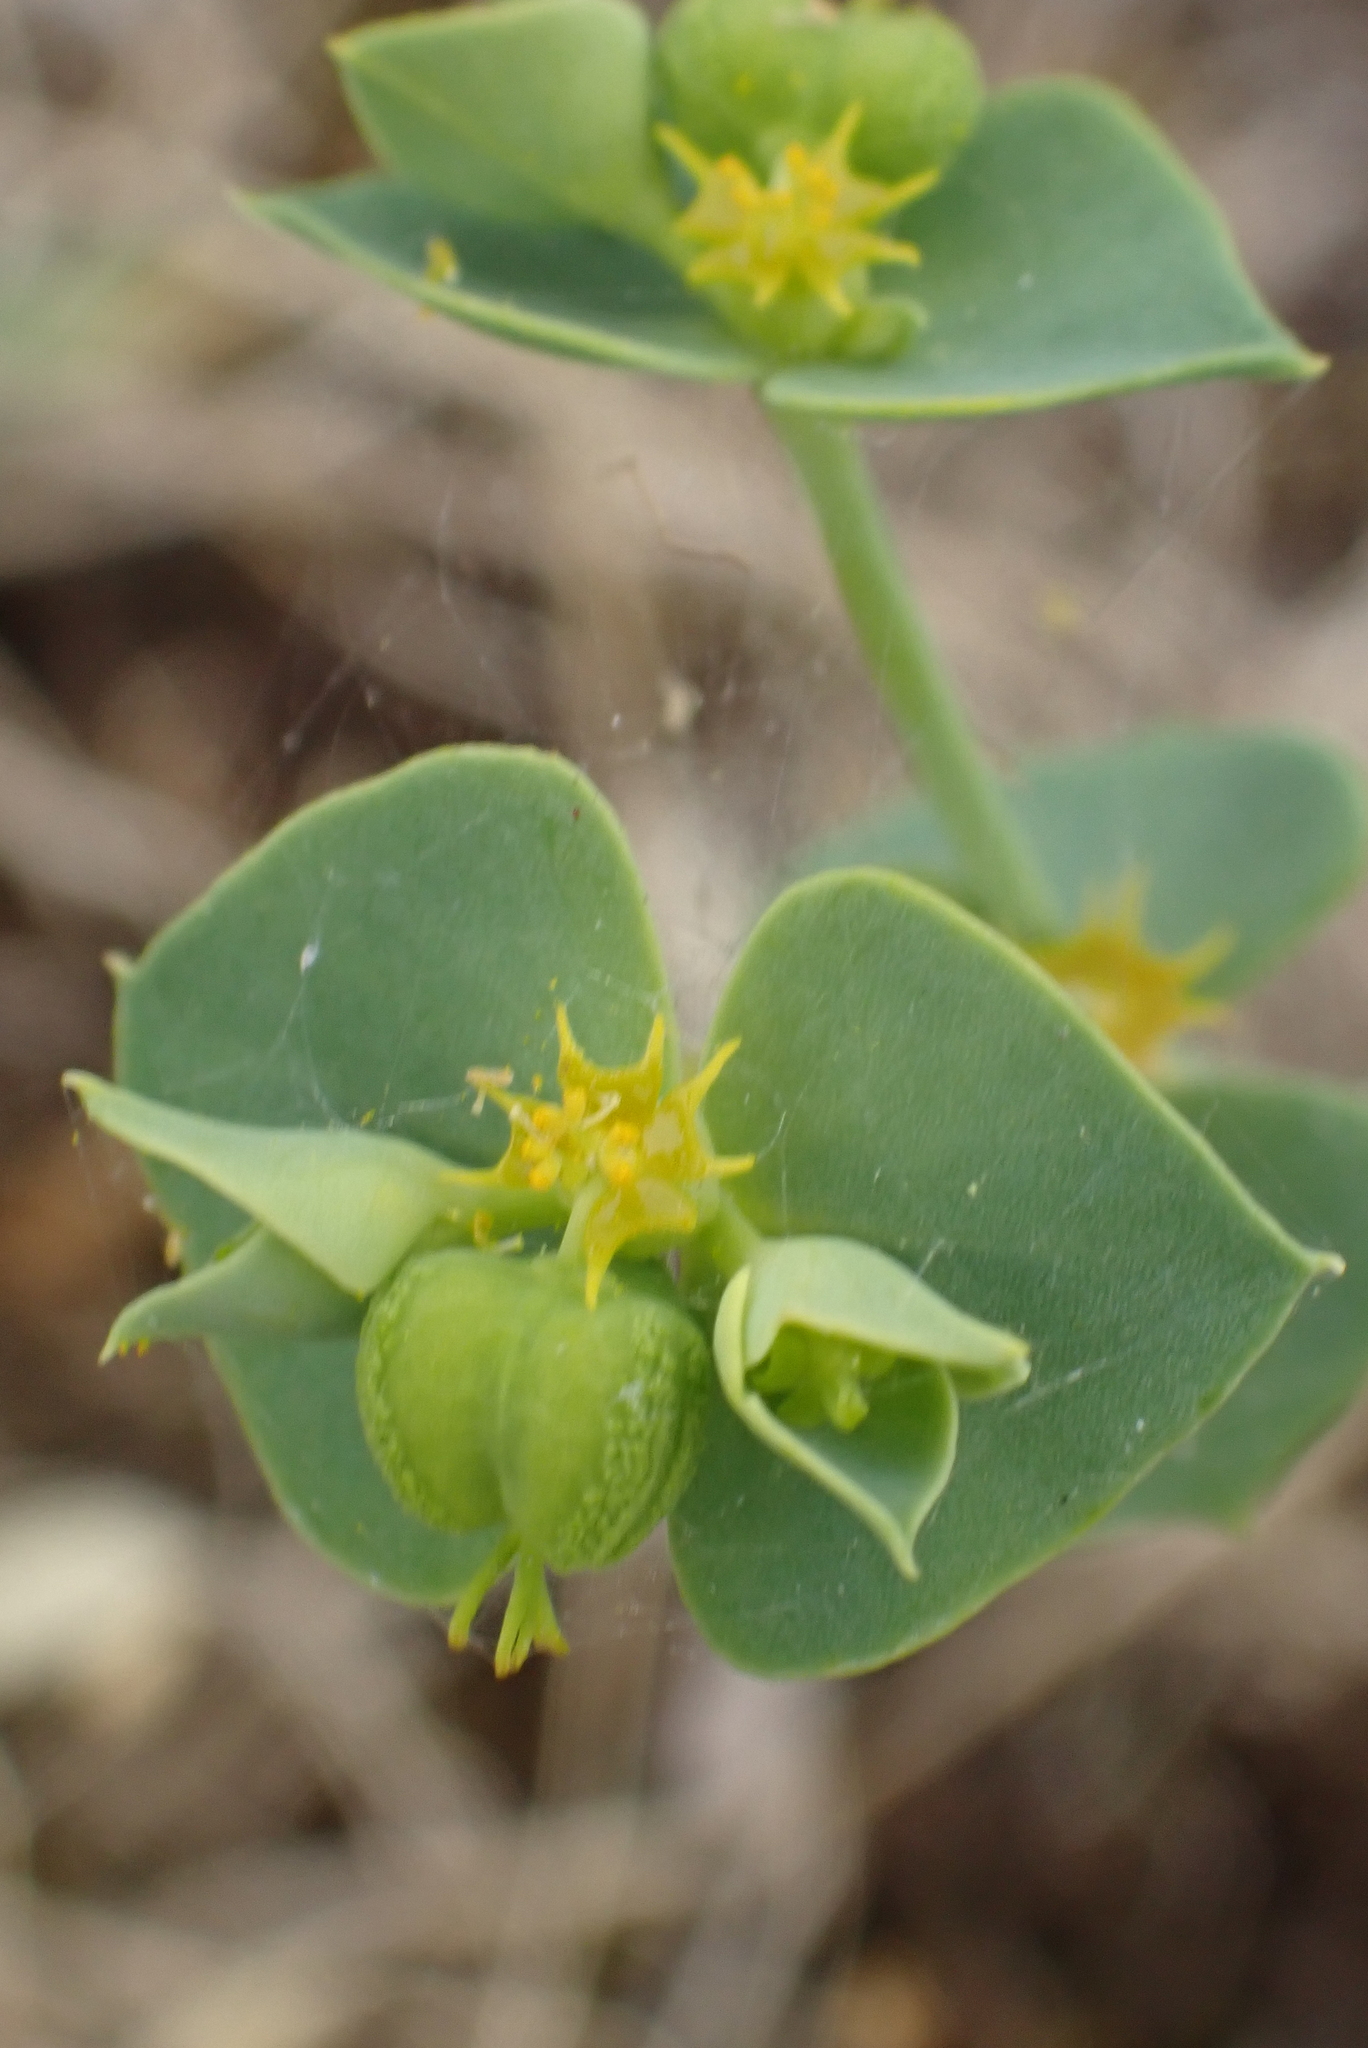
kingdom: Plantae
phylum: Tracheophyta
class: Magnoliopsida
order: Malpighiales
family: Euphorbiaceae
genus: Euphorbia
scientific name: Euphorbia portlandica
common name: Portland spurge
